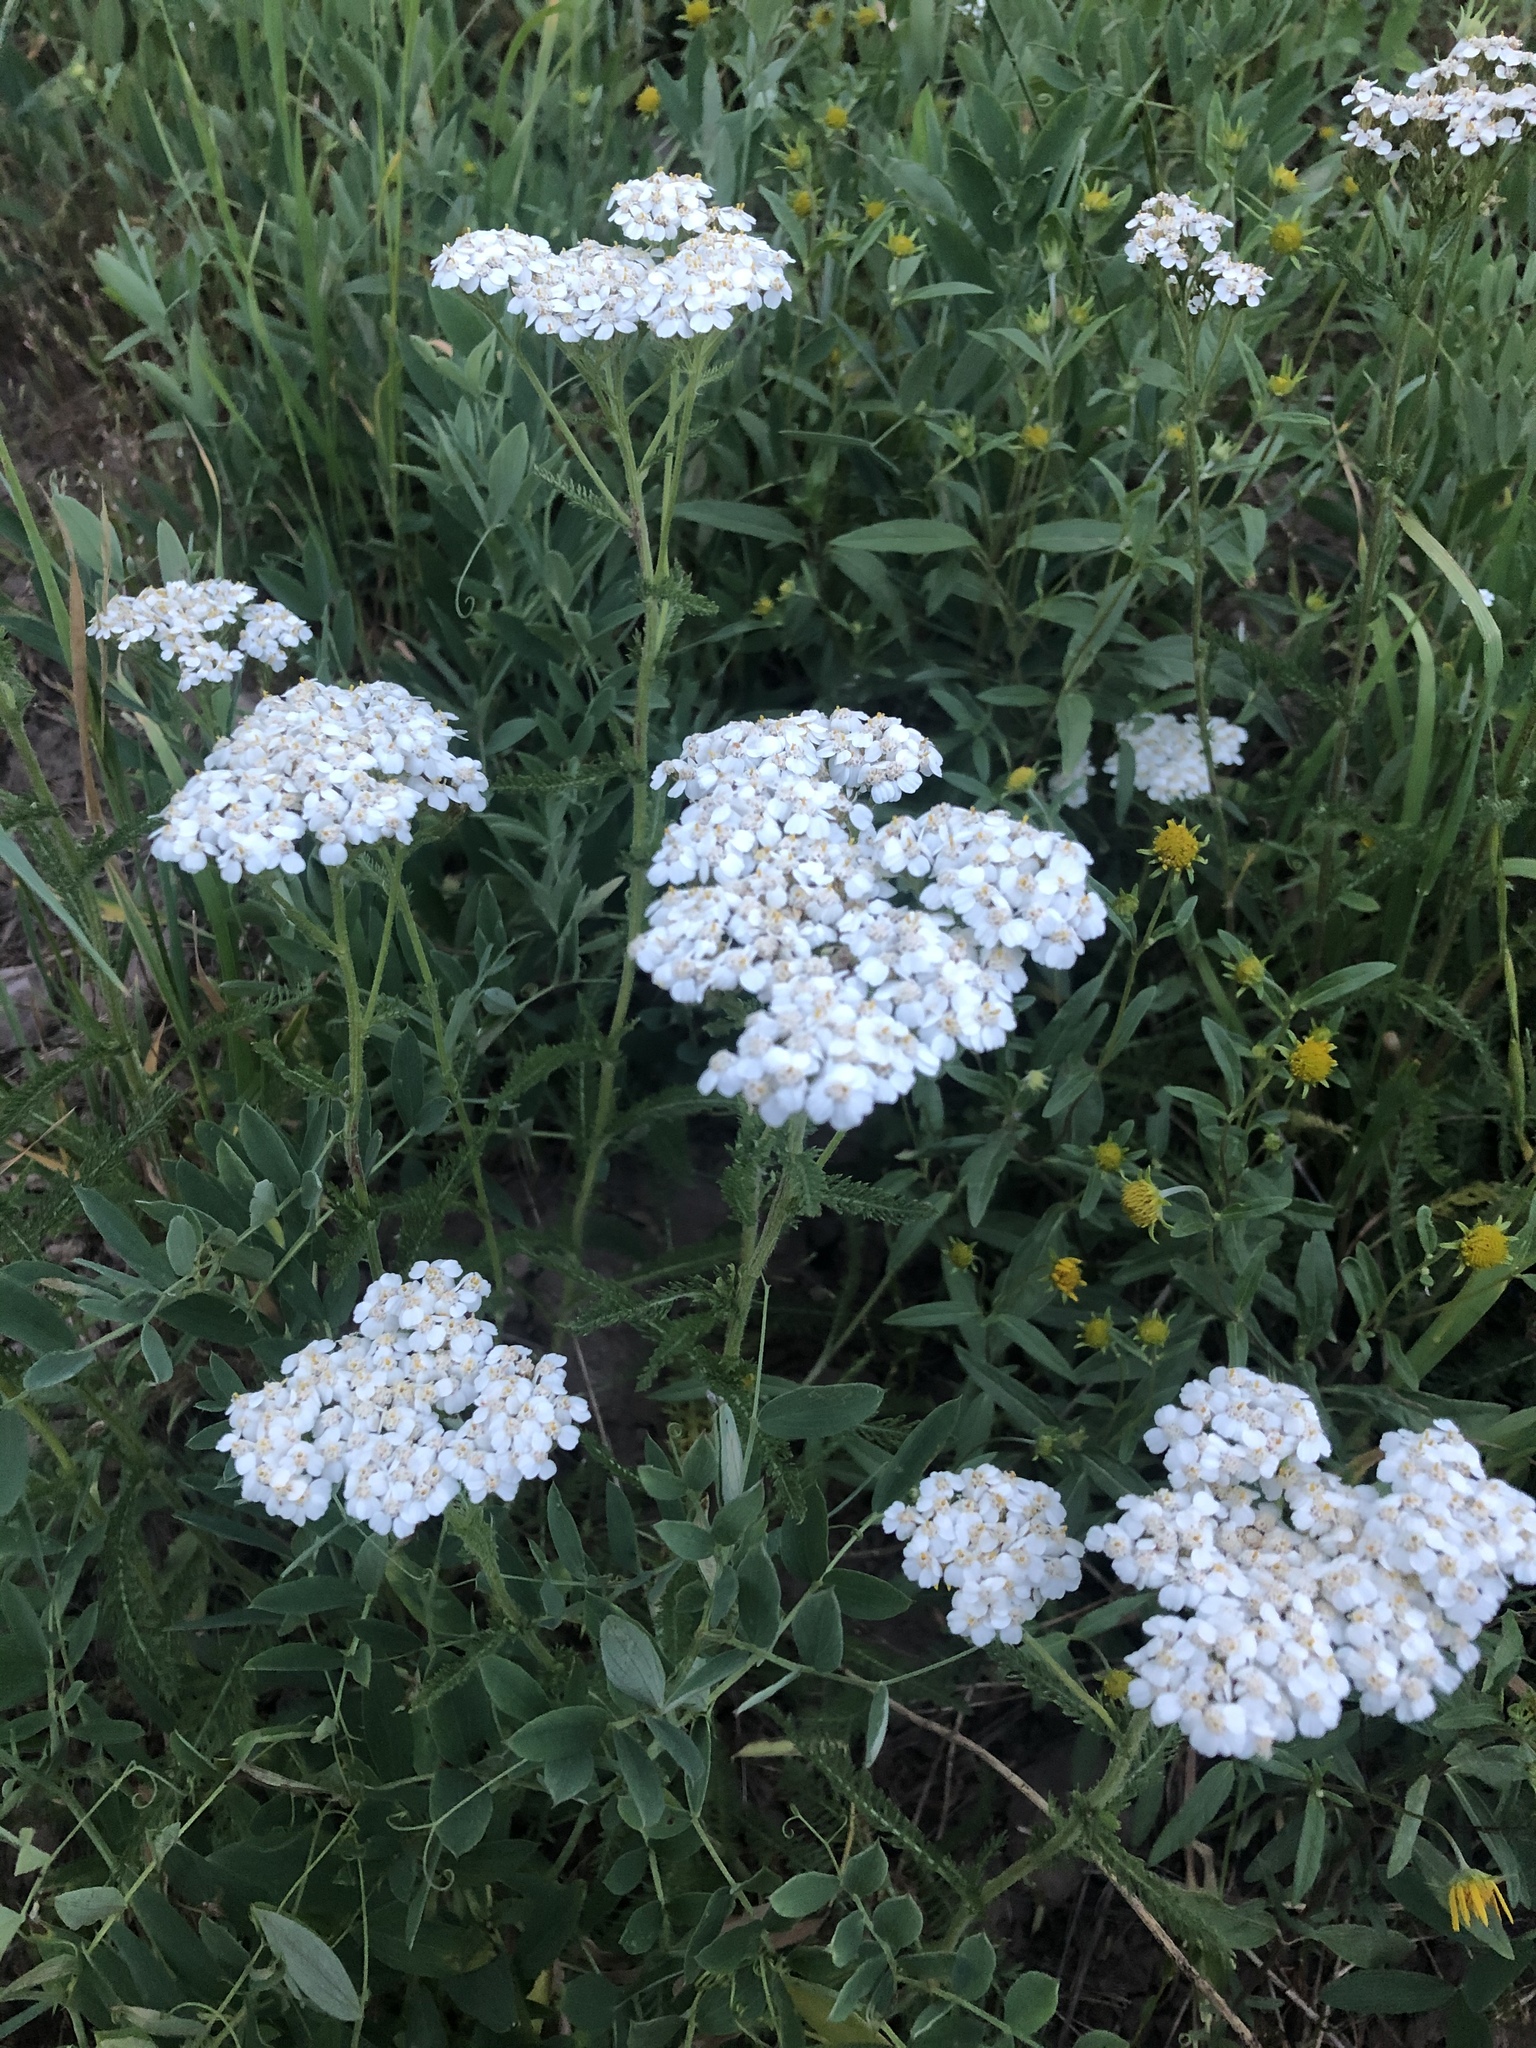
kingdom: Plantae
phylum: Tracheophyta
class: Magnoliopsida
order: Asterales
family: Asteraceae
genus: Achillea
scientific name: Achillea millefolium
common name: Yarrow
